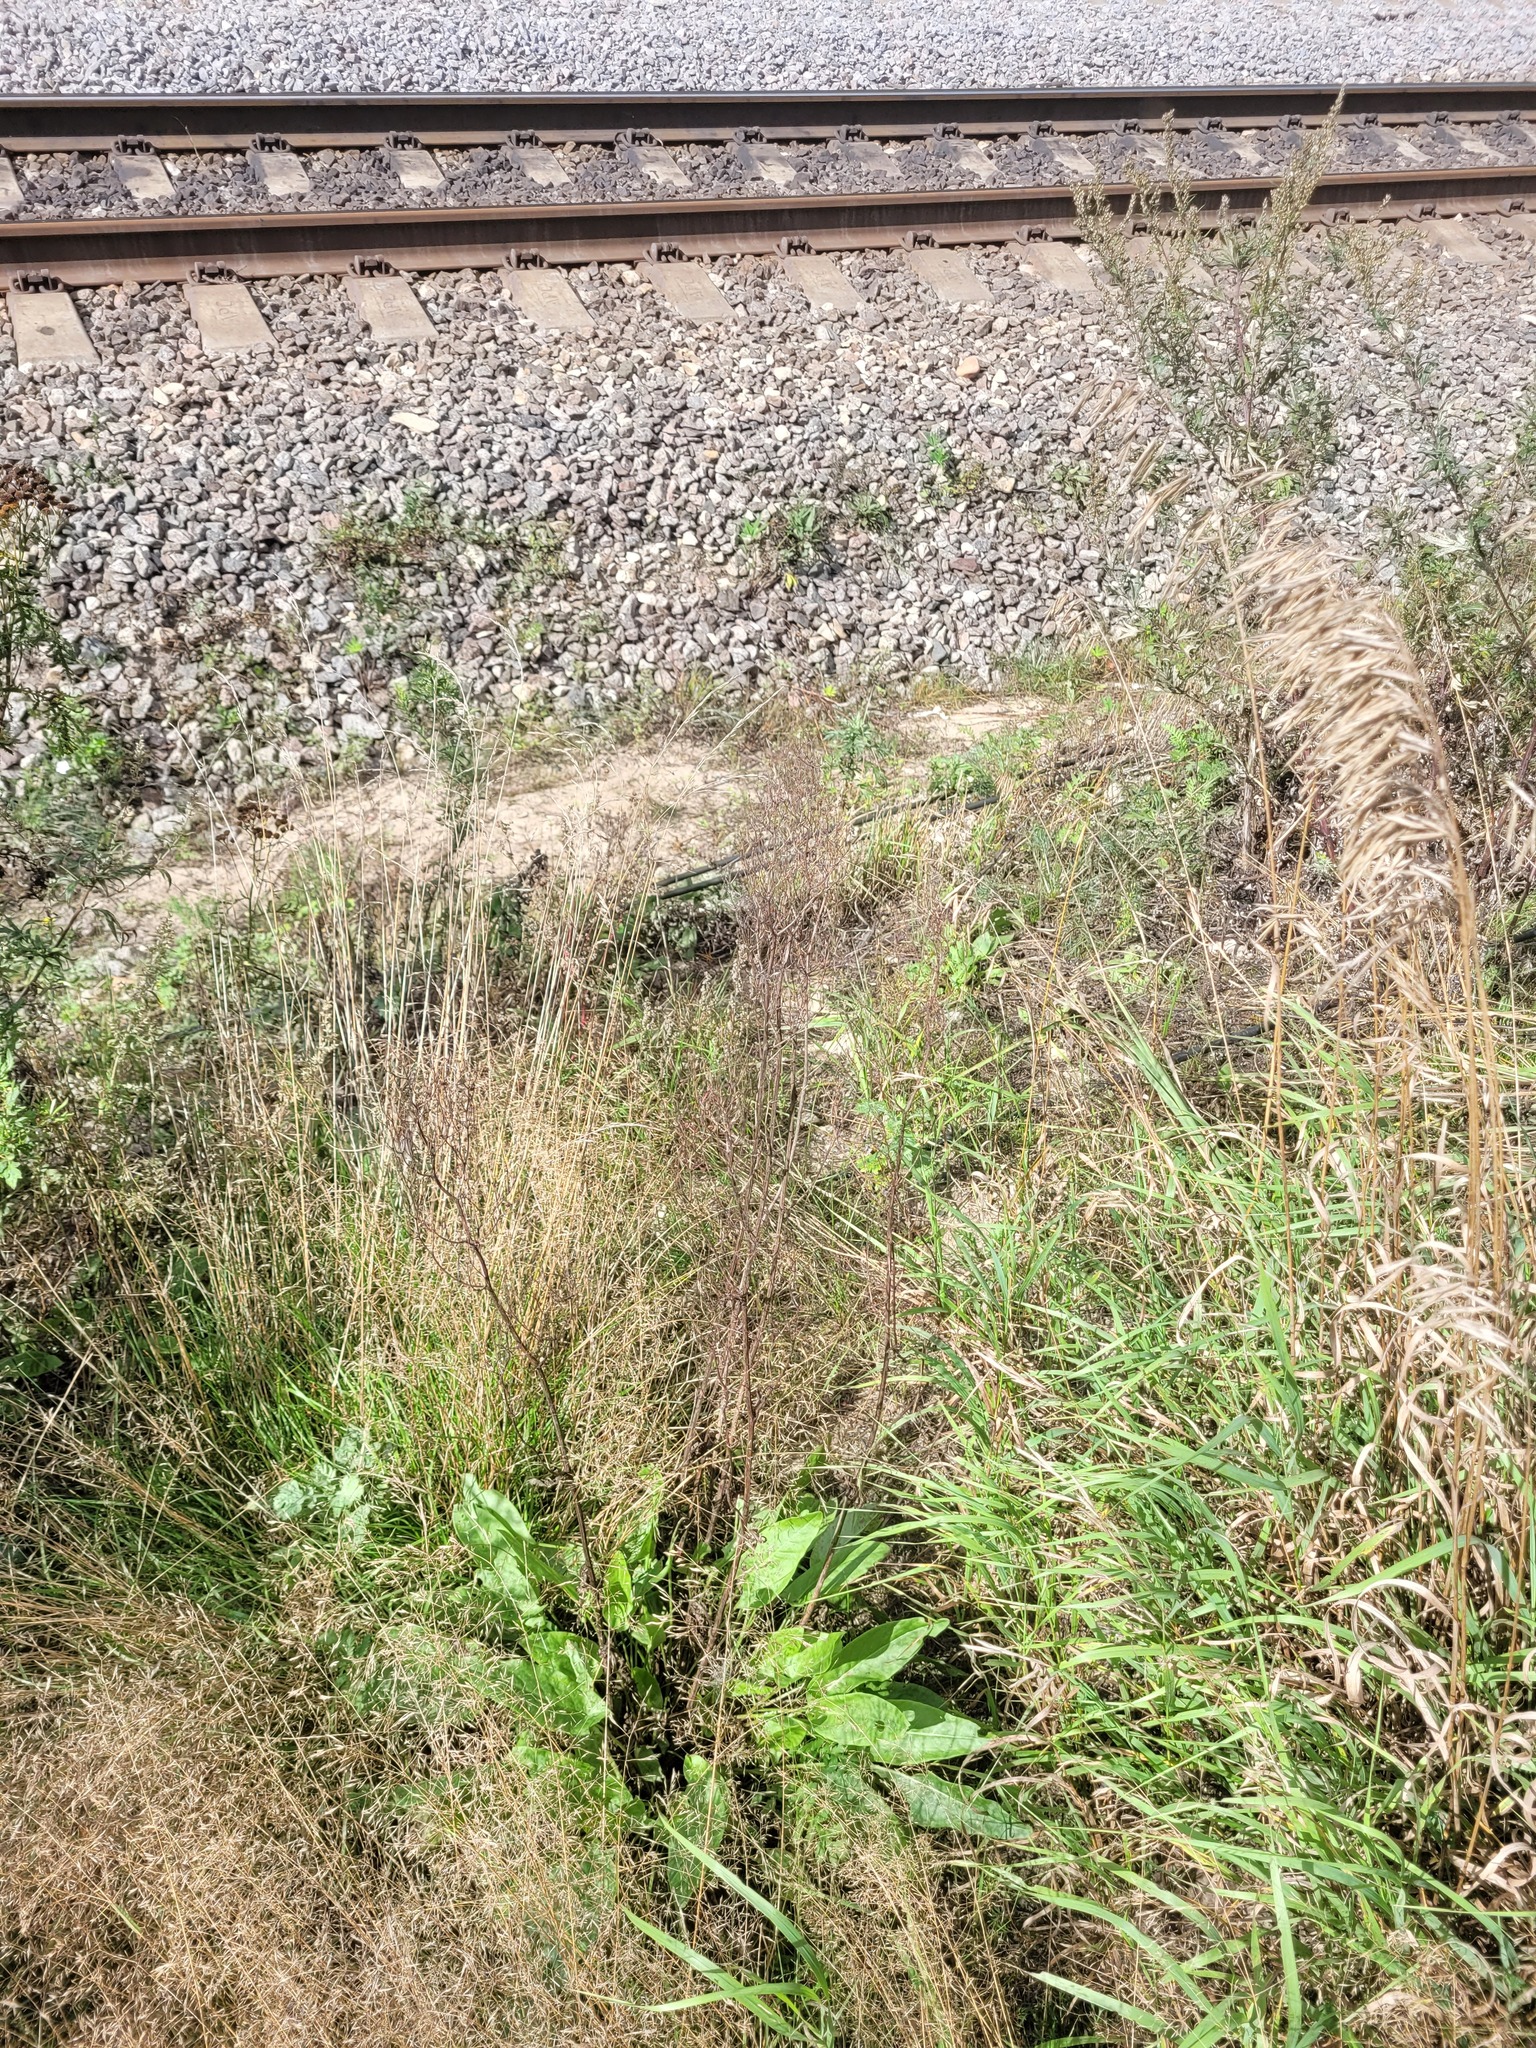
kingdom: Plantae
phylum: Tracheophyta
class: Magnoliopsida
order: Caryophyllales
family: Polygonaceae
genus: Rumex
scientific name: Rumex thyrsiflorus
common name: Garden sorrel
